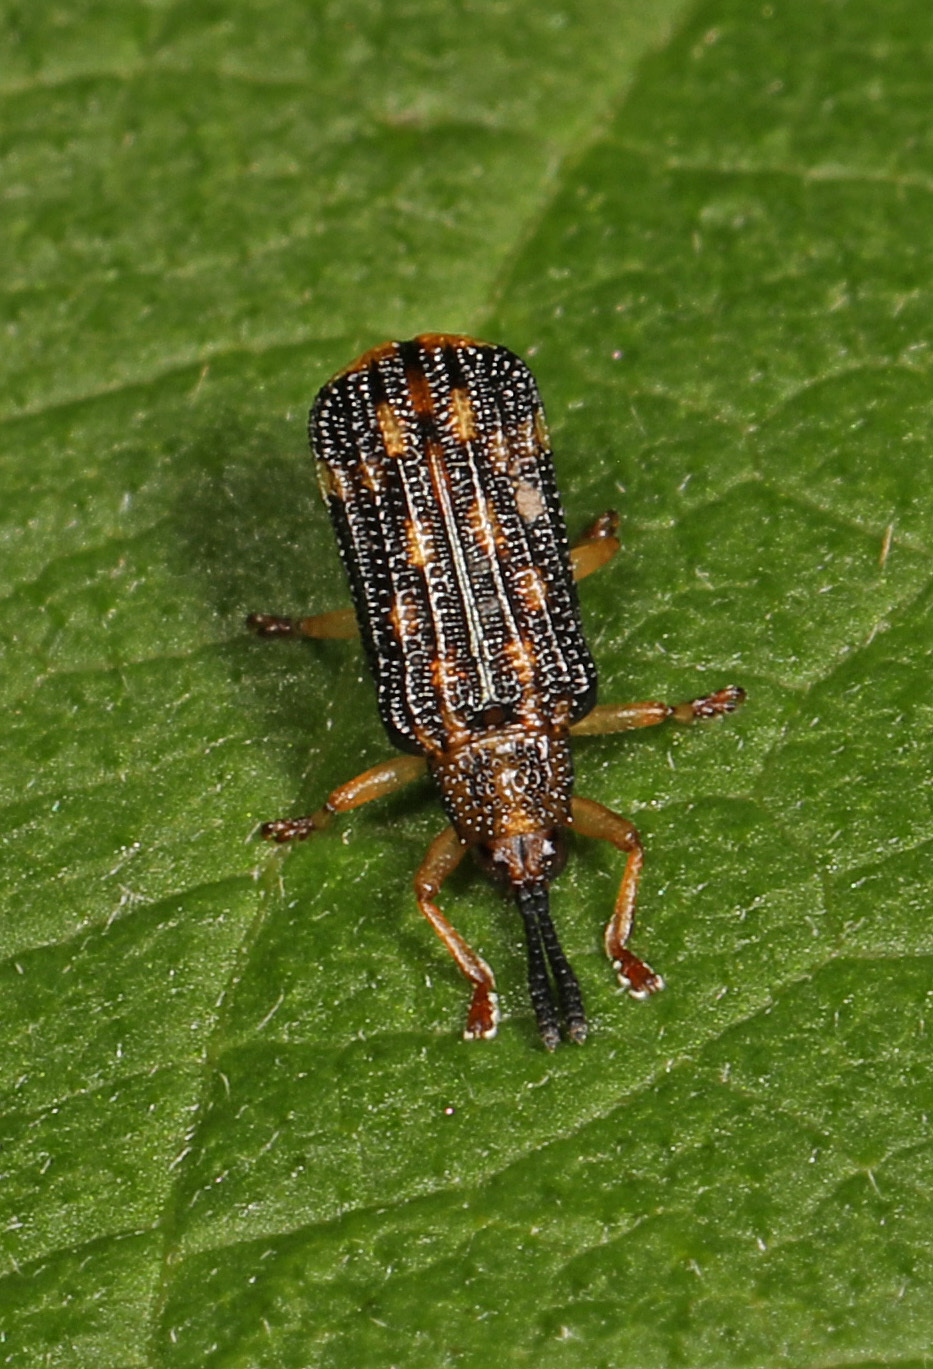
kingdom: Animalia
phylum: Arthropoda
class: Insecta
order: Coleoptera
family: Chrysomelidae
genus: Sumitrosis
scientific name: Sumitrosis inaequalis
